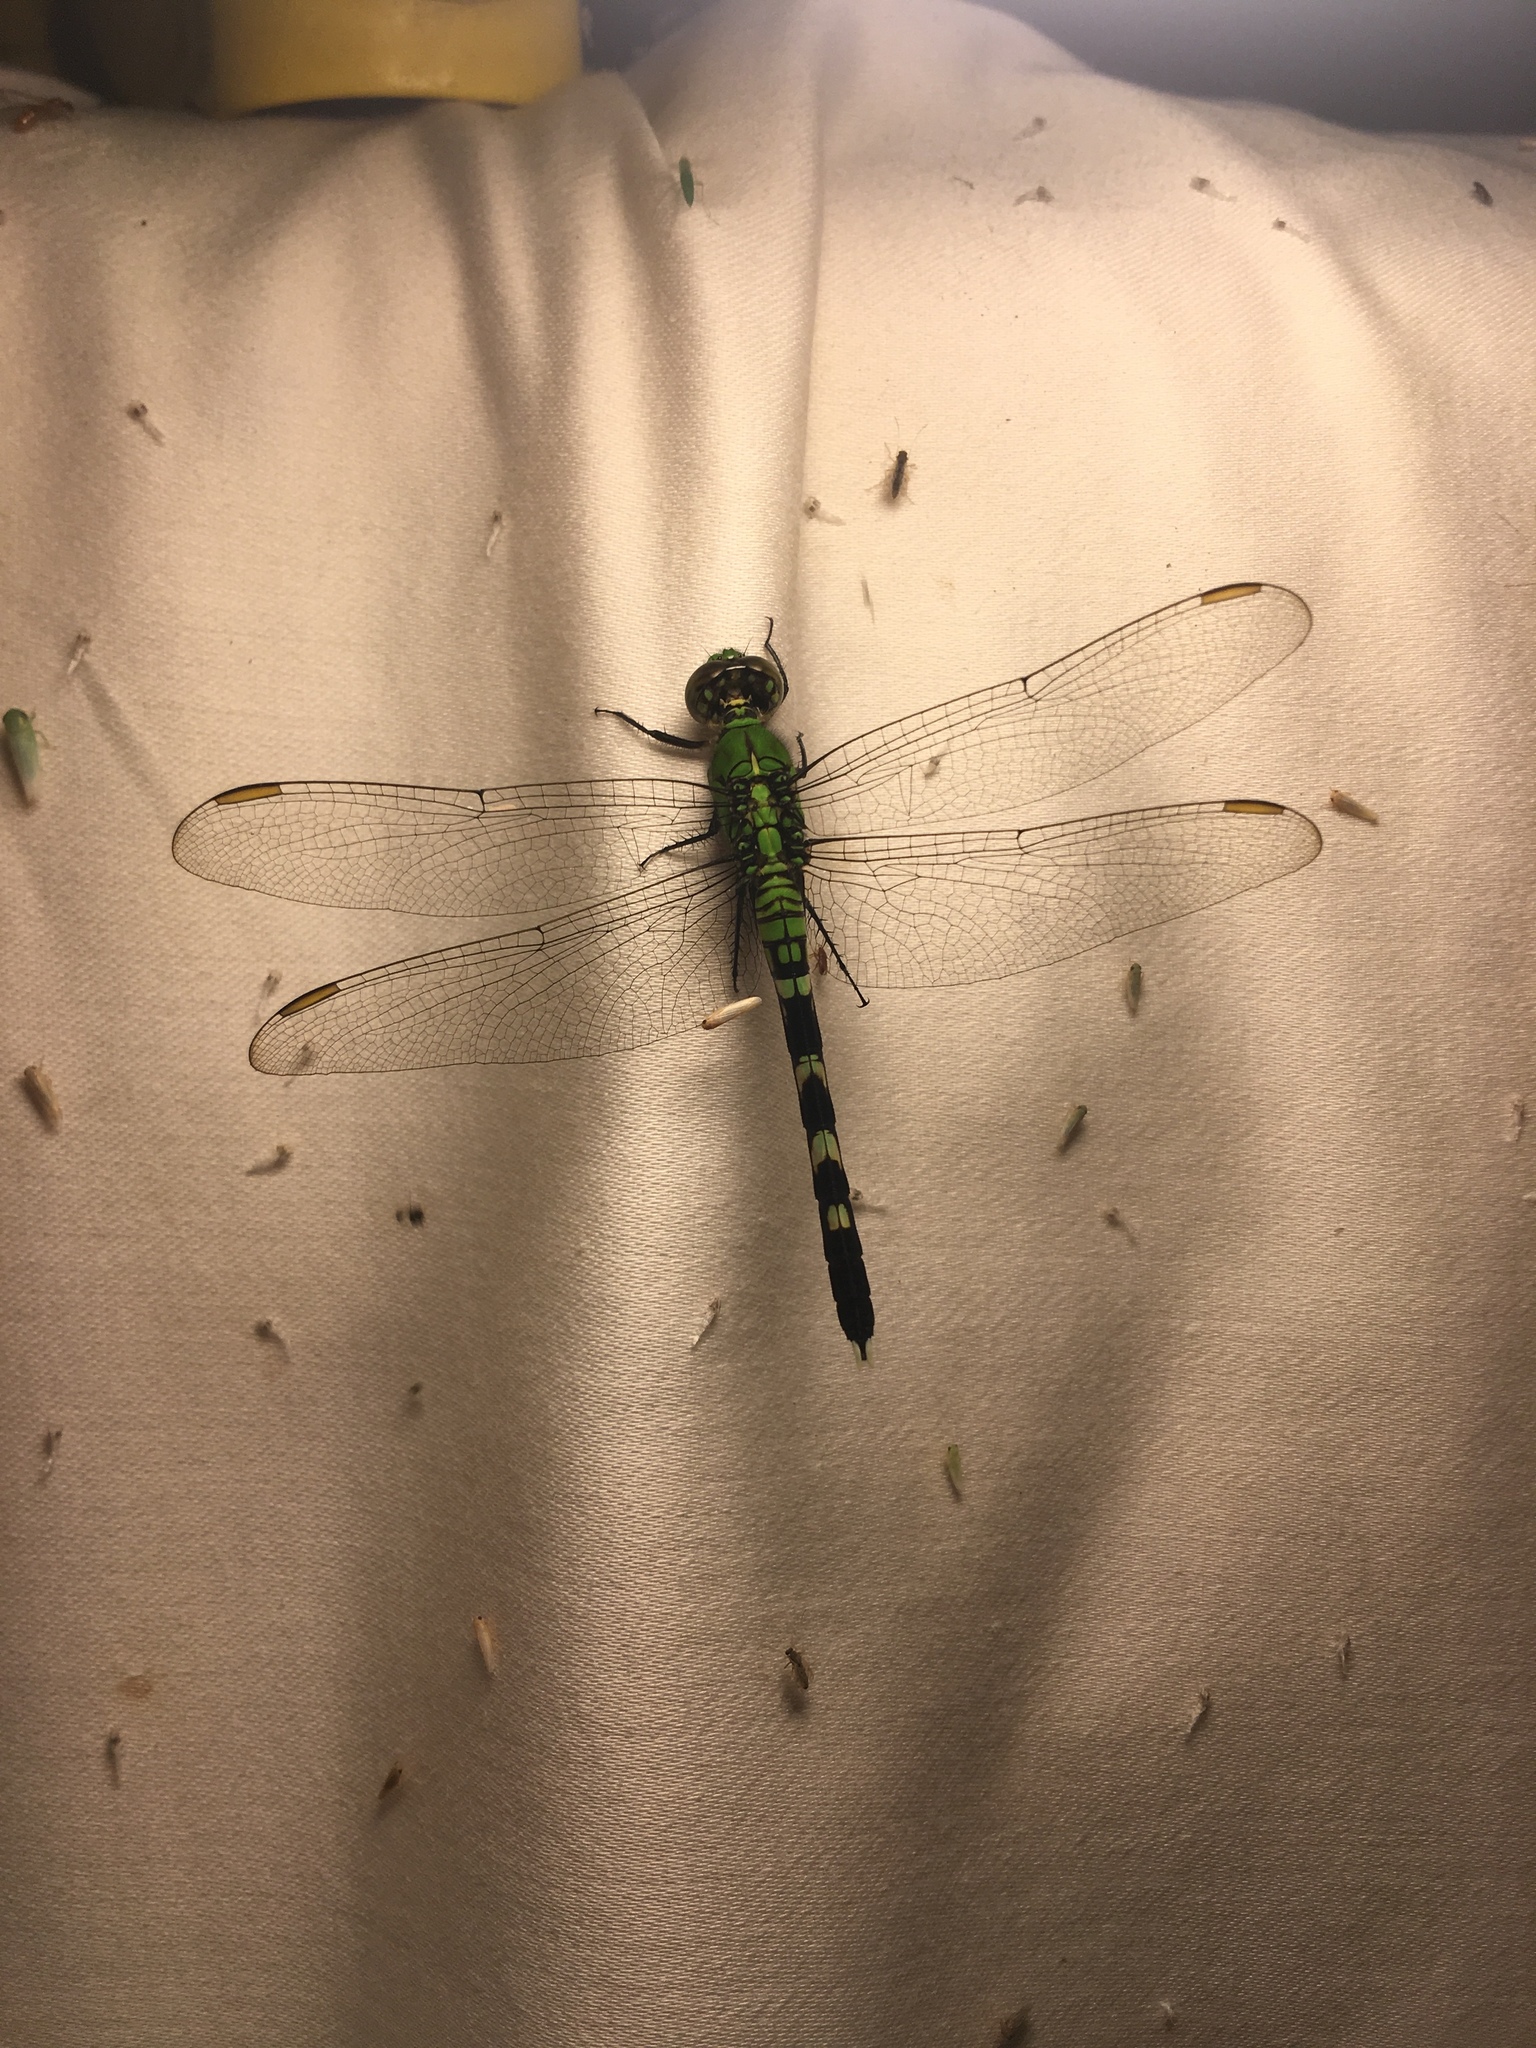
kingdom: Animalia
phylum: Arthropoda
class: Insecta
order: Odonata
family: Libellulidae
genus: Erythemis
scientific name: Erythemis simplicicollis
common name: Eastern pondhawk
